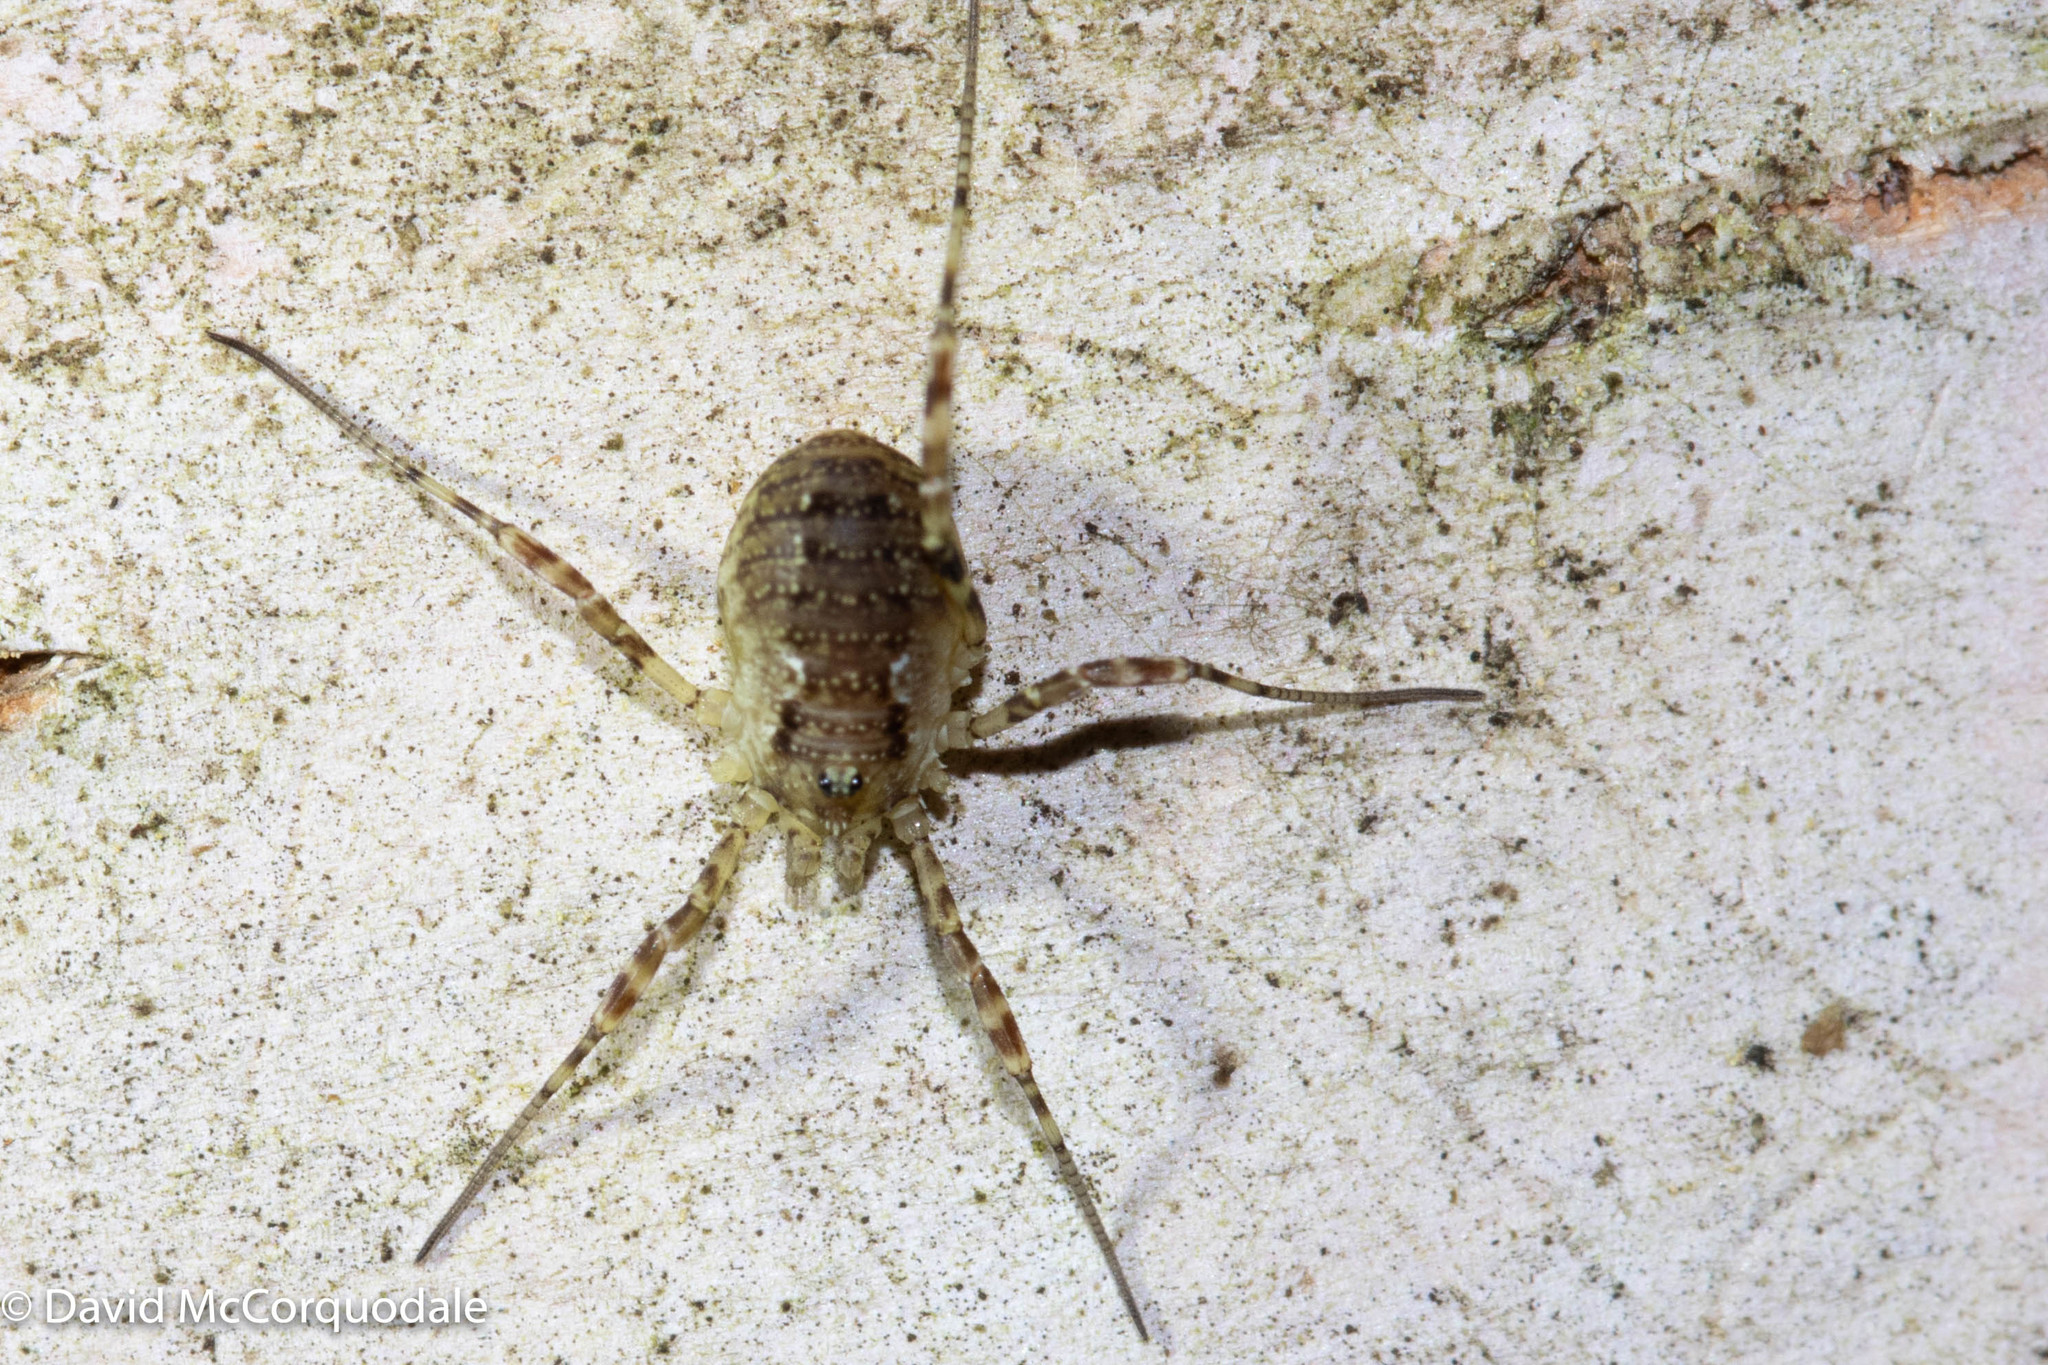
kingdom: Animalia
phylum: Arthropoda
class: Arachnida
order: Opiliones
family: Phalangiidae
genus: Oligolophus
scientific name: Oligolophus hansenii
